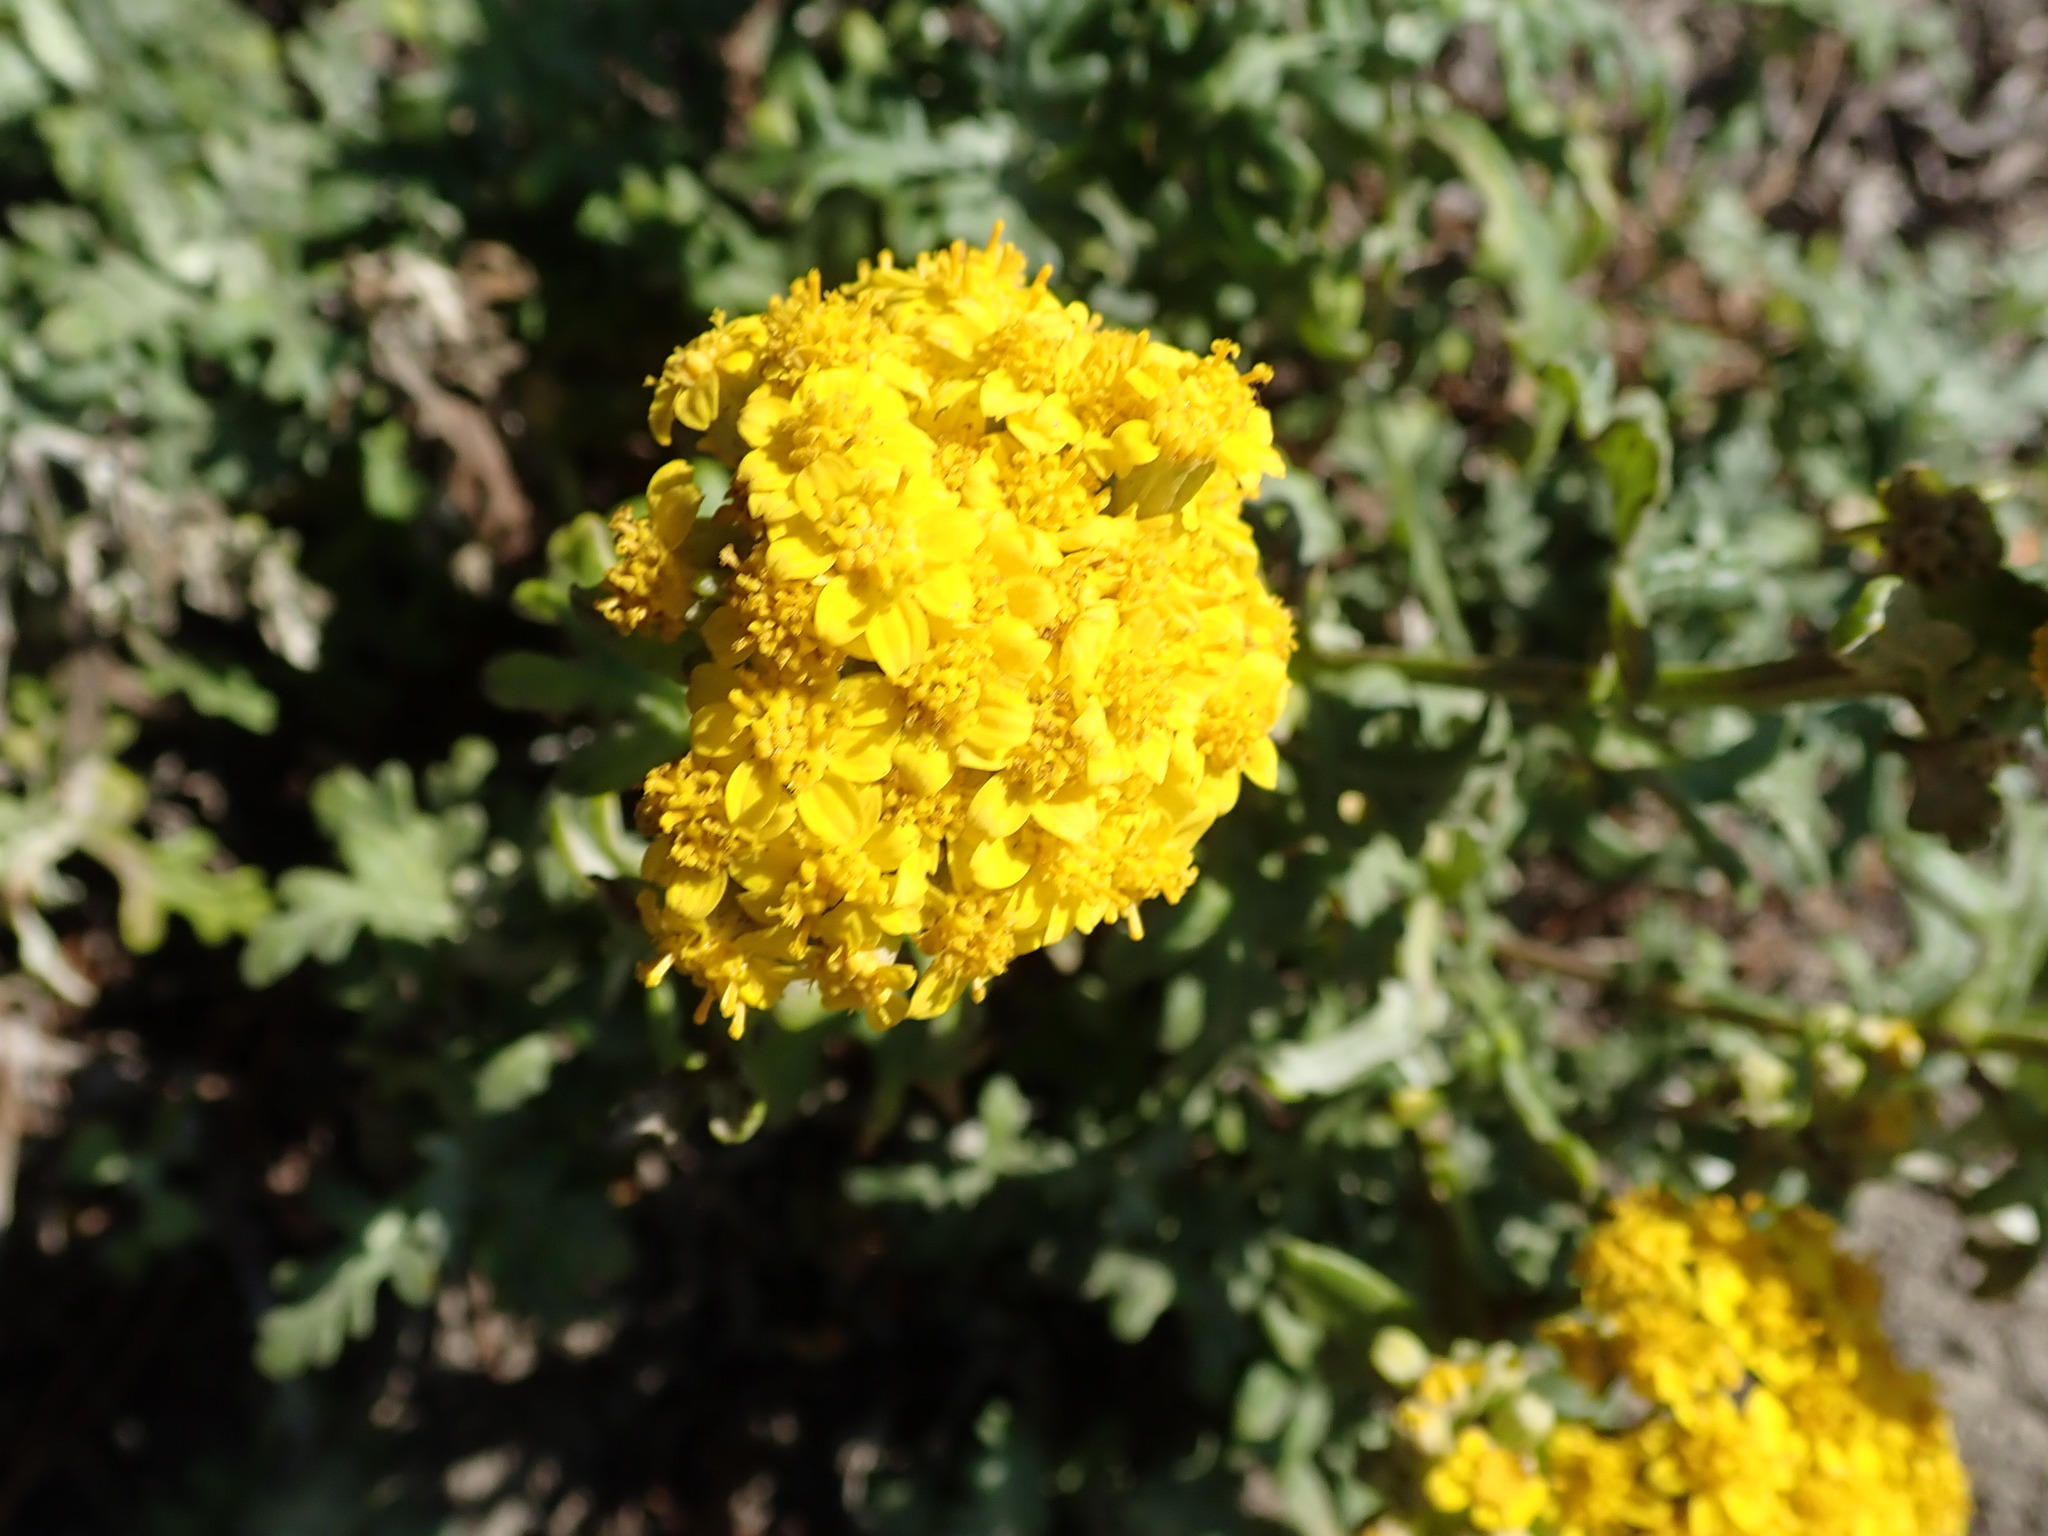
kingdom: Plantae
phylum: Tracheophyta
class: Magnoliopsida
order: Asterales
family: Asteraceae
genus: Eriophyllum
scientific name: Eriophyllum staechadifolium
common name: Lizardtail
